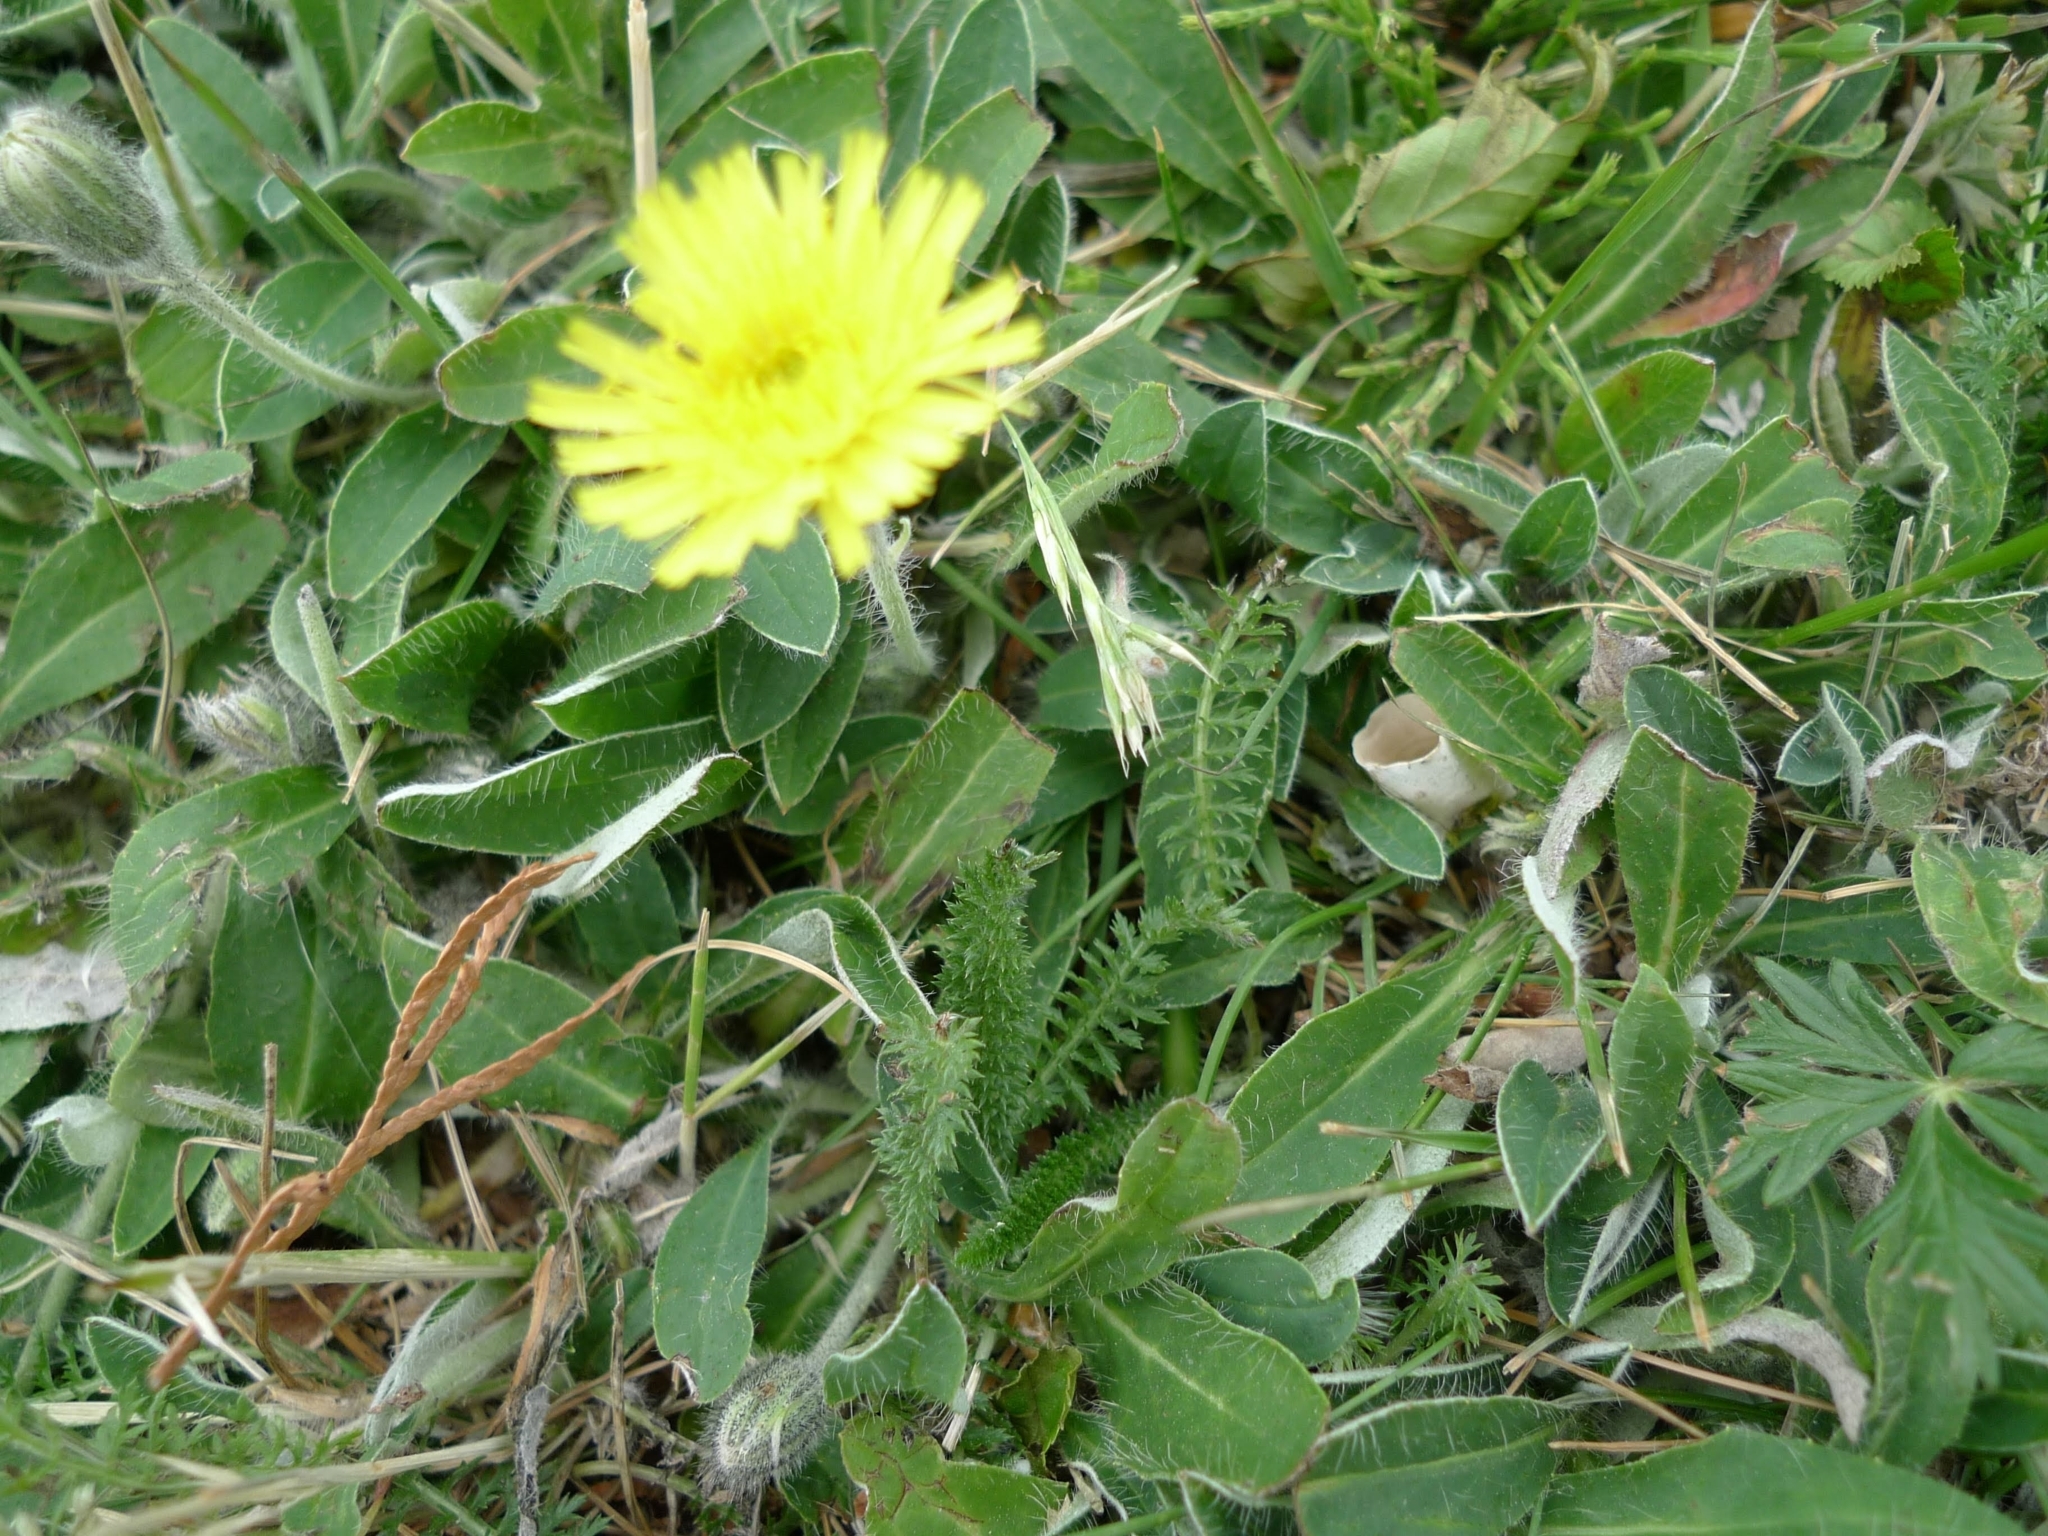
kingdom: Plantae
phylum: Tracheophyta
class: Magnoliopsida
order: Asterales
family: Asteraceae
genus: Pilosella
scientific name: Pilosella officinarum
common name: Mouse-ear hawkweed
